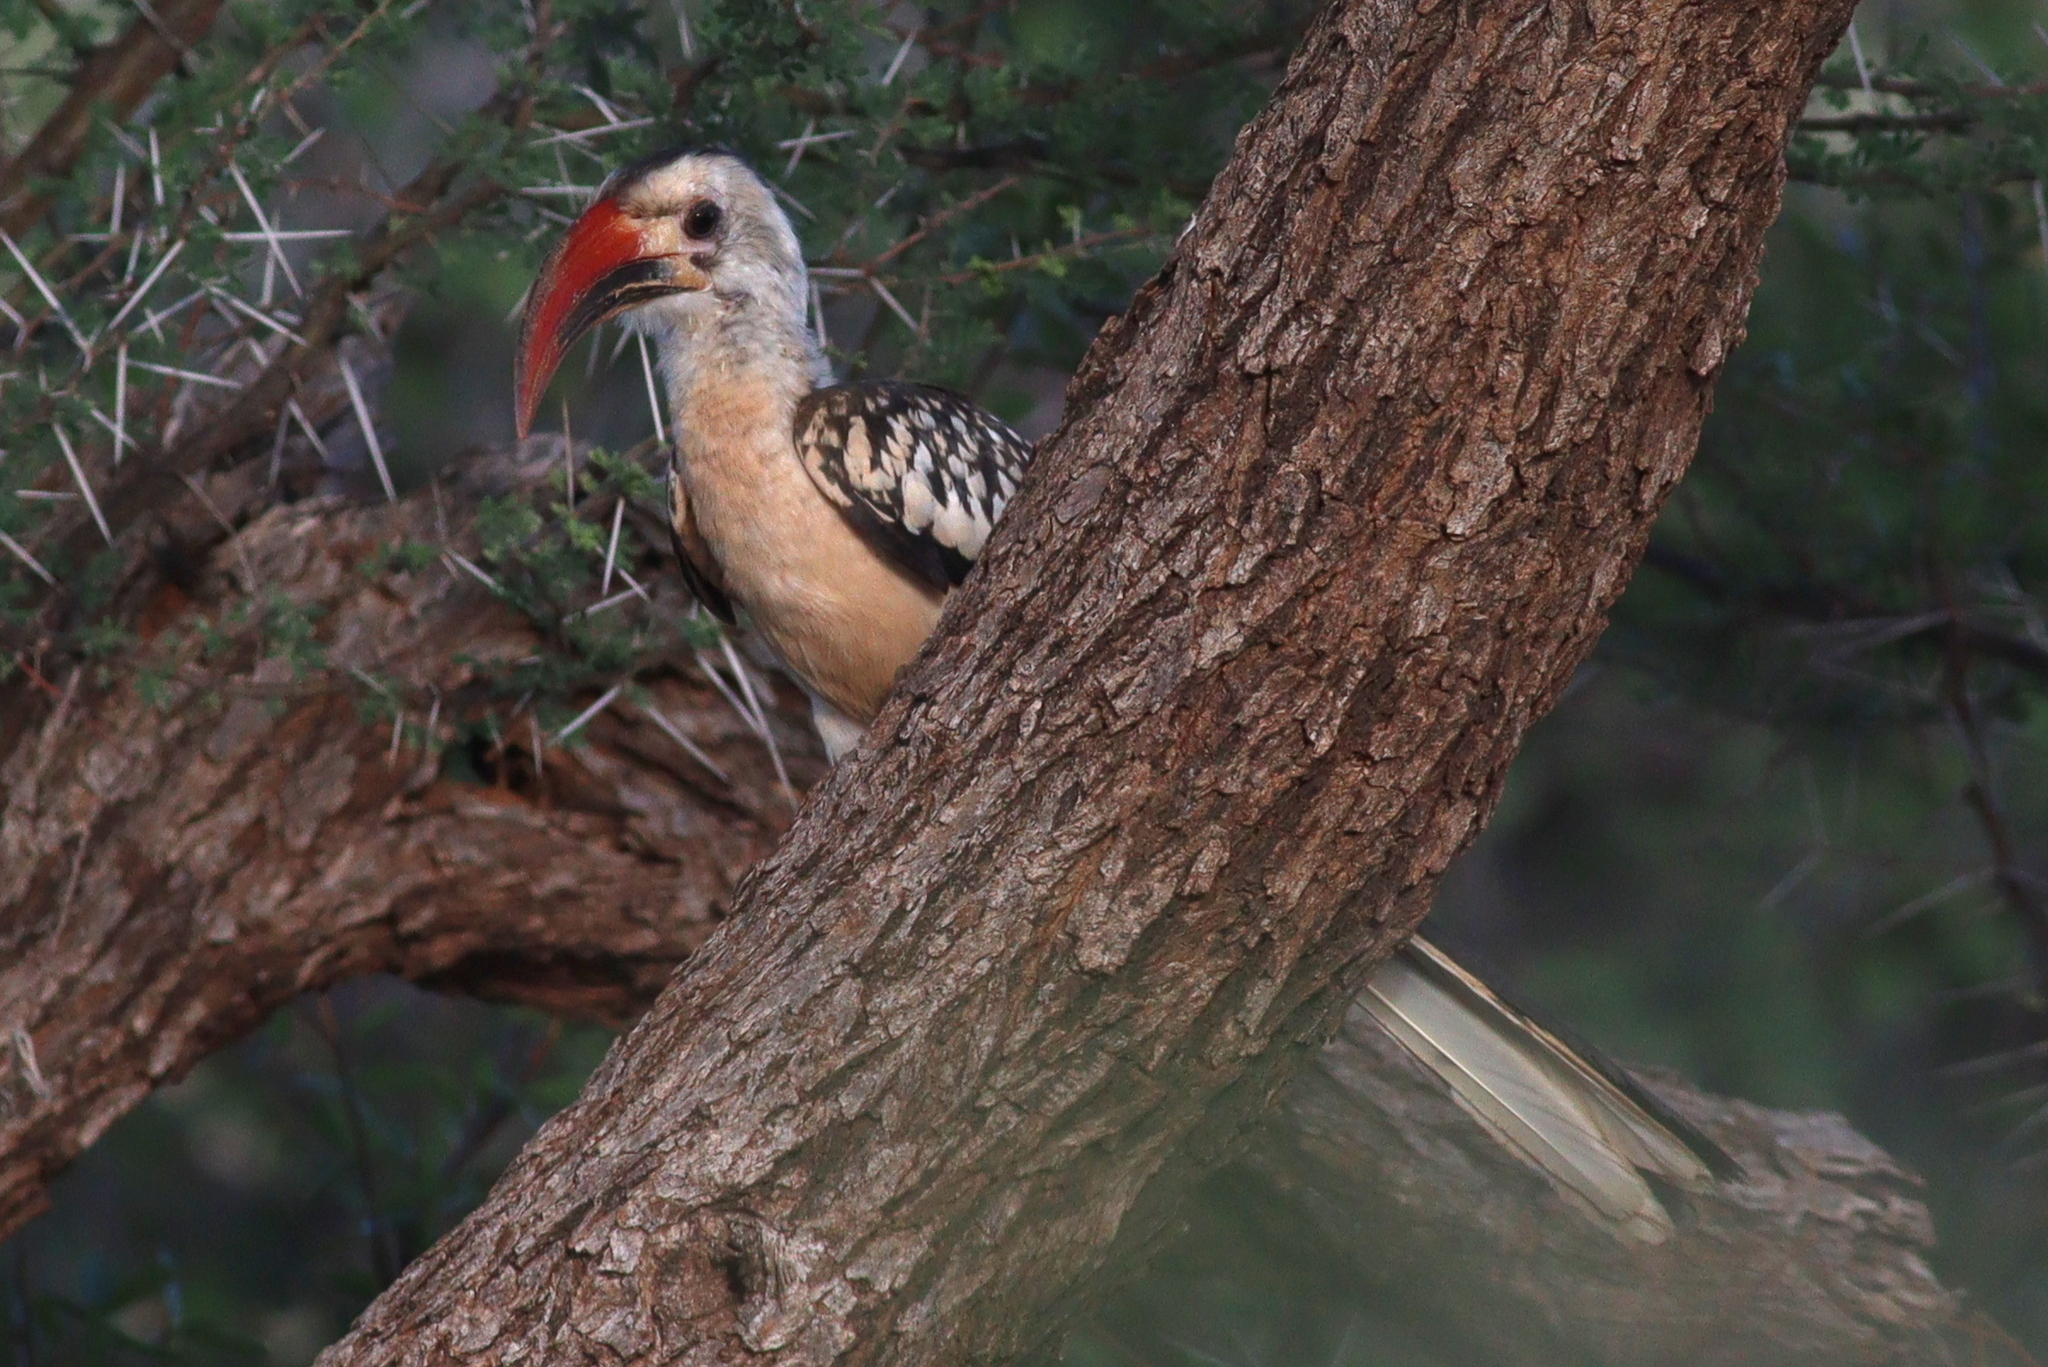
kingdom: Animalia
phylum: Chordata
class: Aves
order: Bucerotiformes
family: Bucerotidae
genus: Tockus
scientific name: Tockus erythrorhynchus
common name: Northern red-billed hornbill
